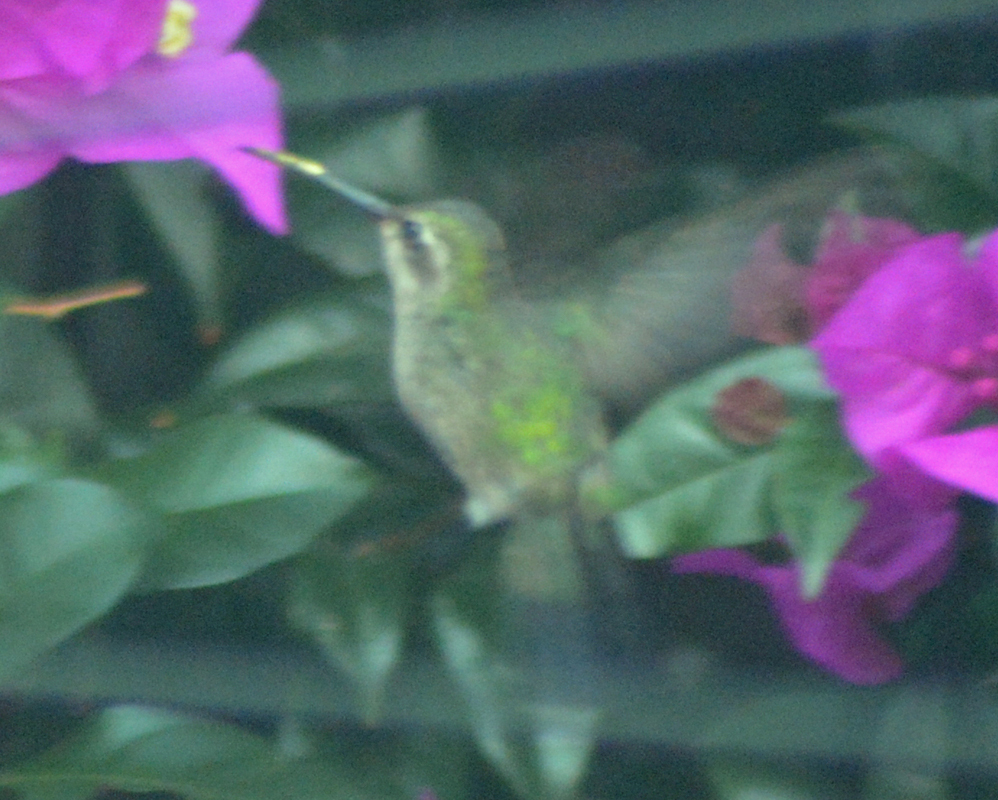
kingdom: Animalia
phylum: Chordata
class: Aves
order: Apodiformes
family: Trochilidae
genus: Cynanthus
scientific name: Cynanthus latirostris
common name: Broad-billed hummingbird
